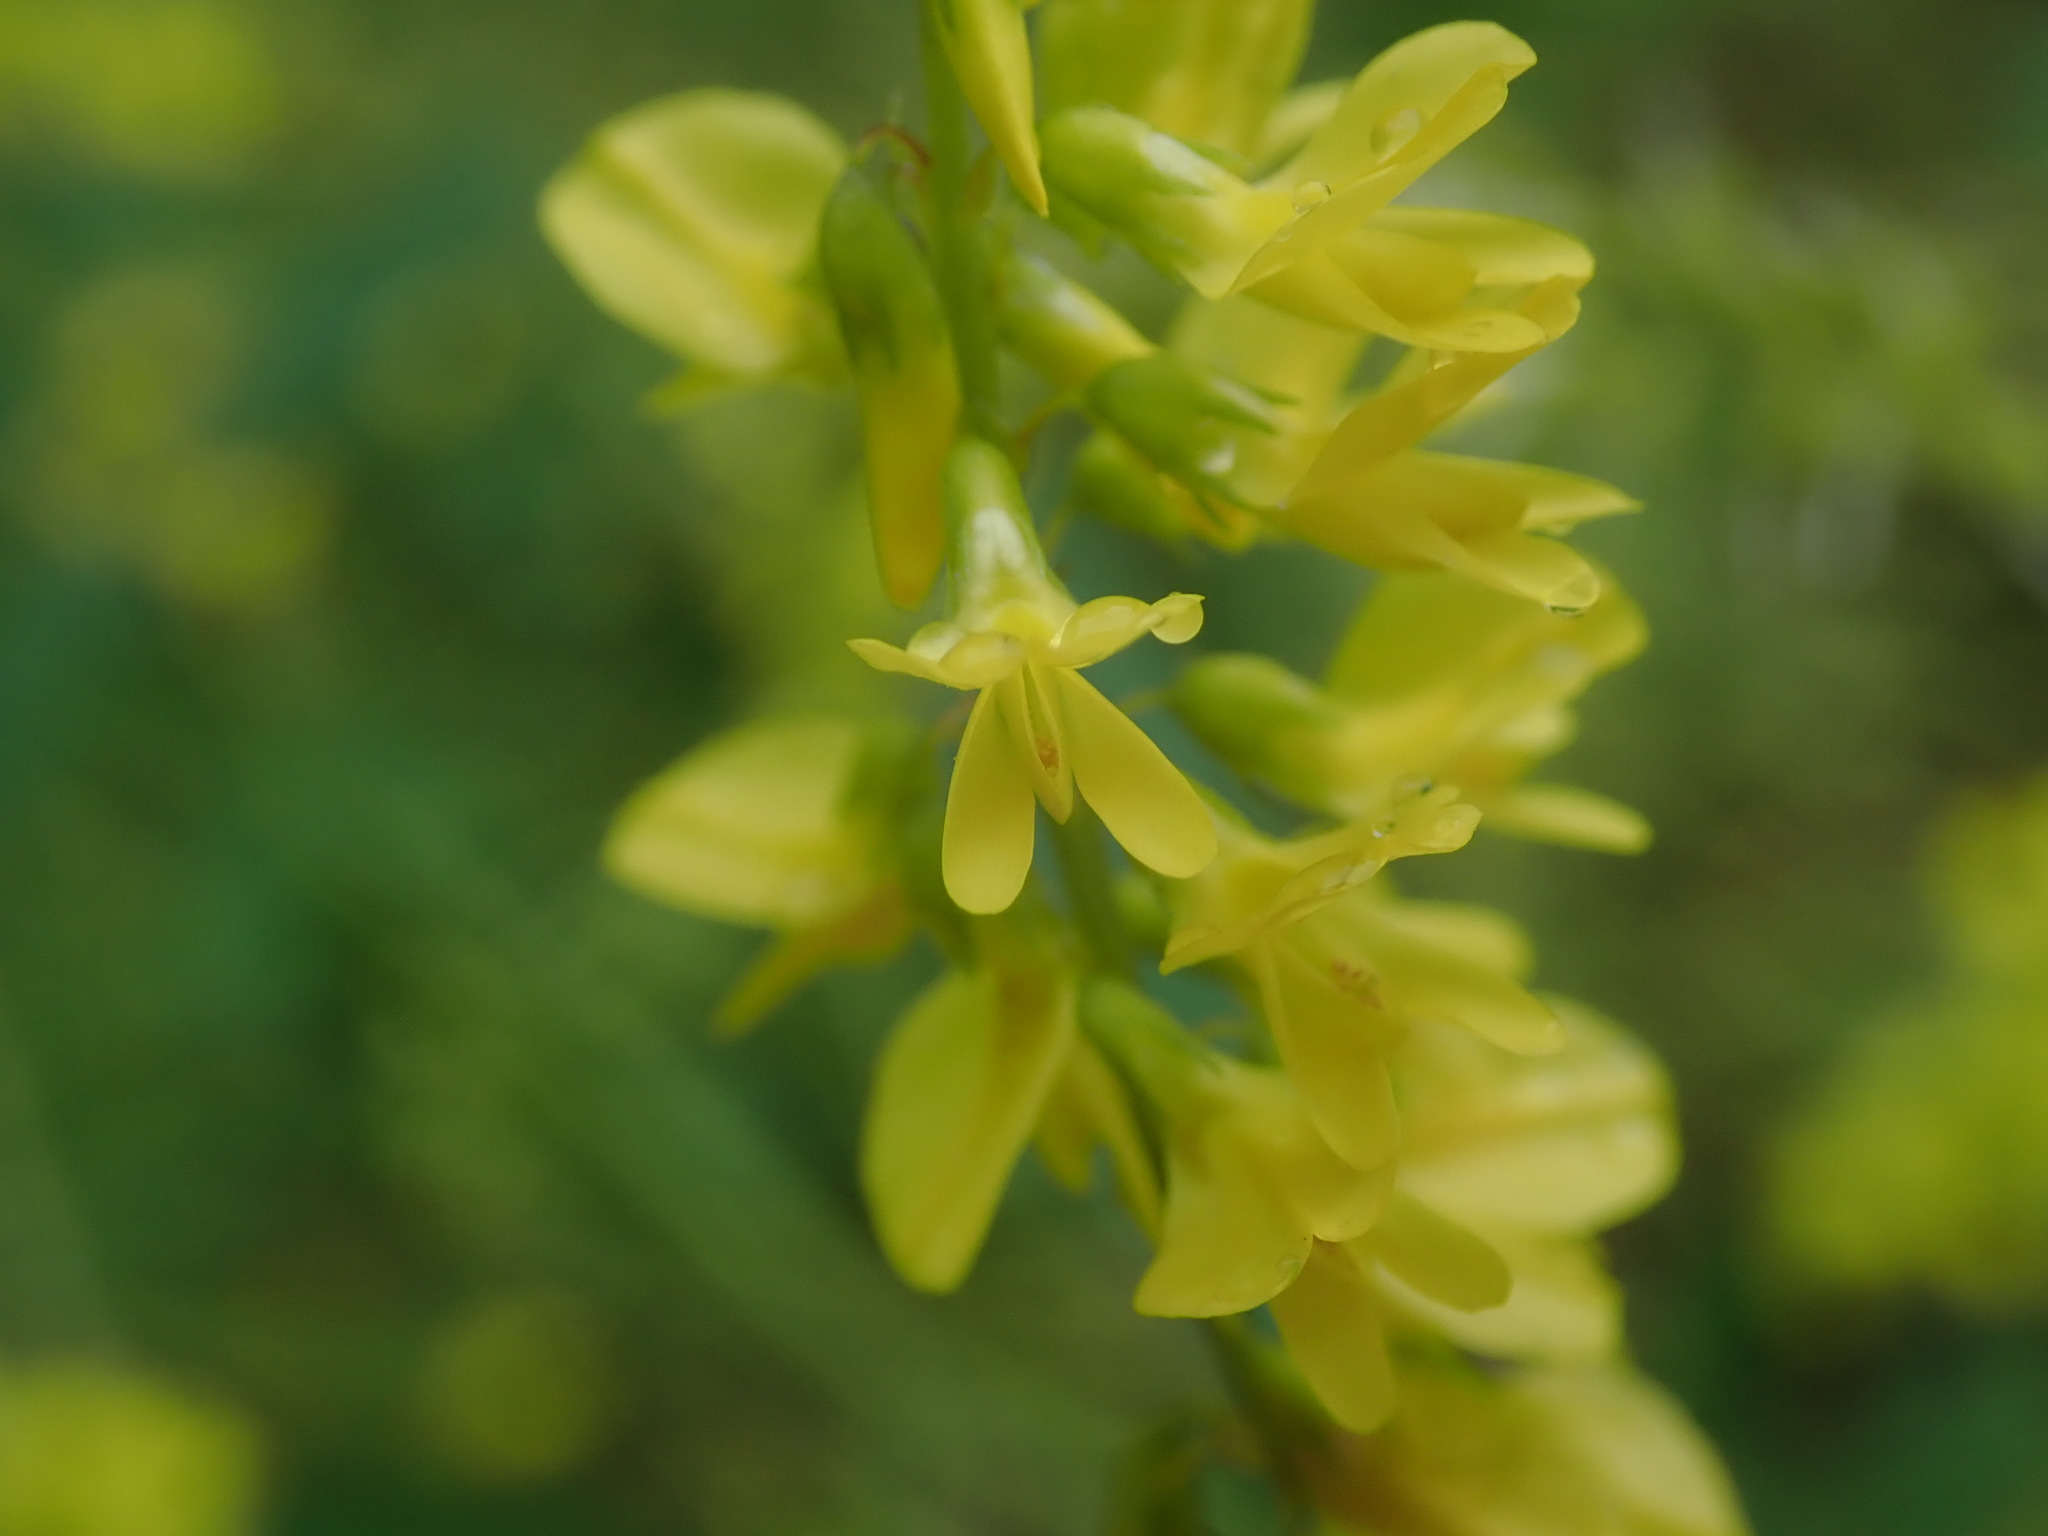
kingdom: Plantae
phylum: Tracheophyta
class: Magnoliopsida
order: Fabales
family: Fabaceae
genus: Melilotus
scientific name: Melilotus officinalis
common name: Sweetclover
